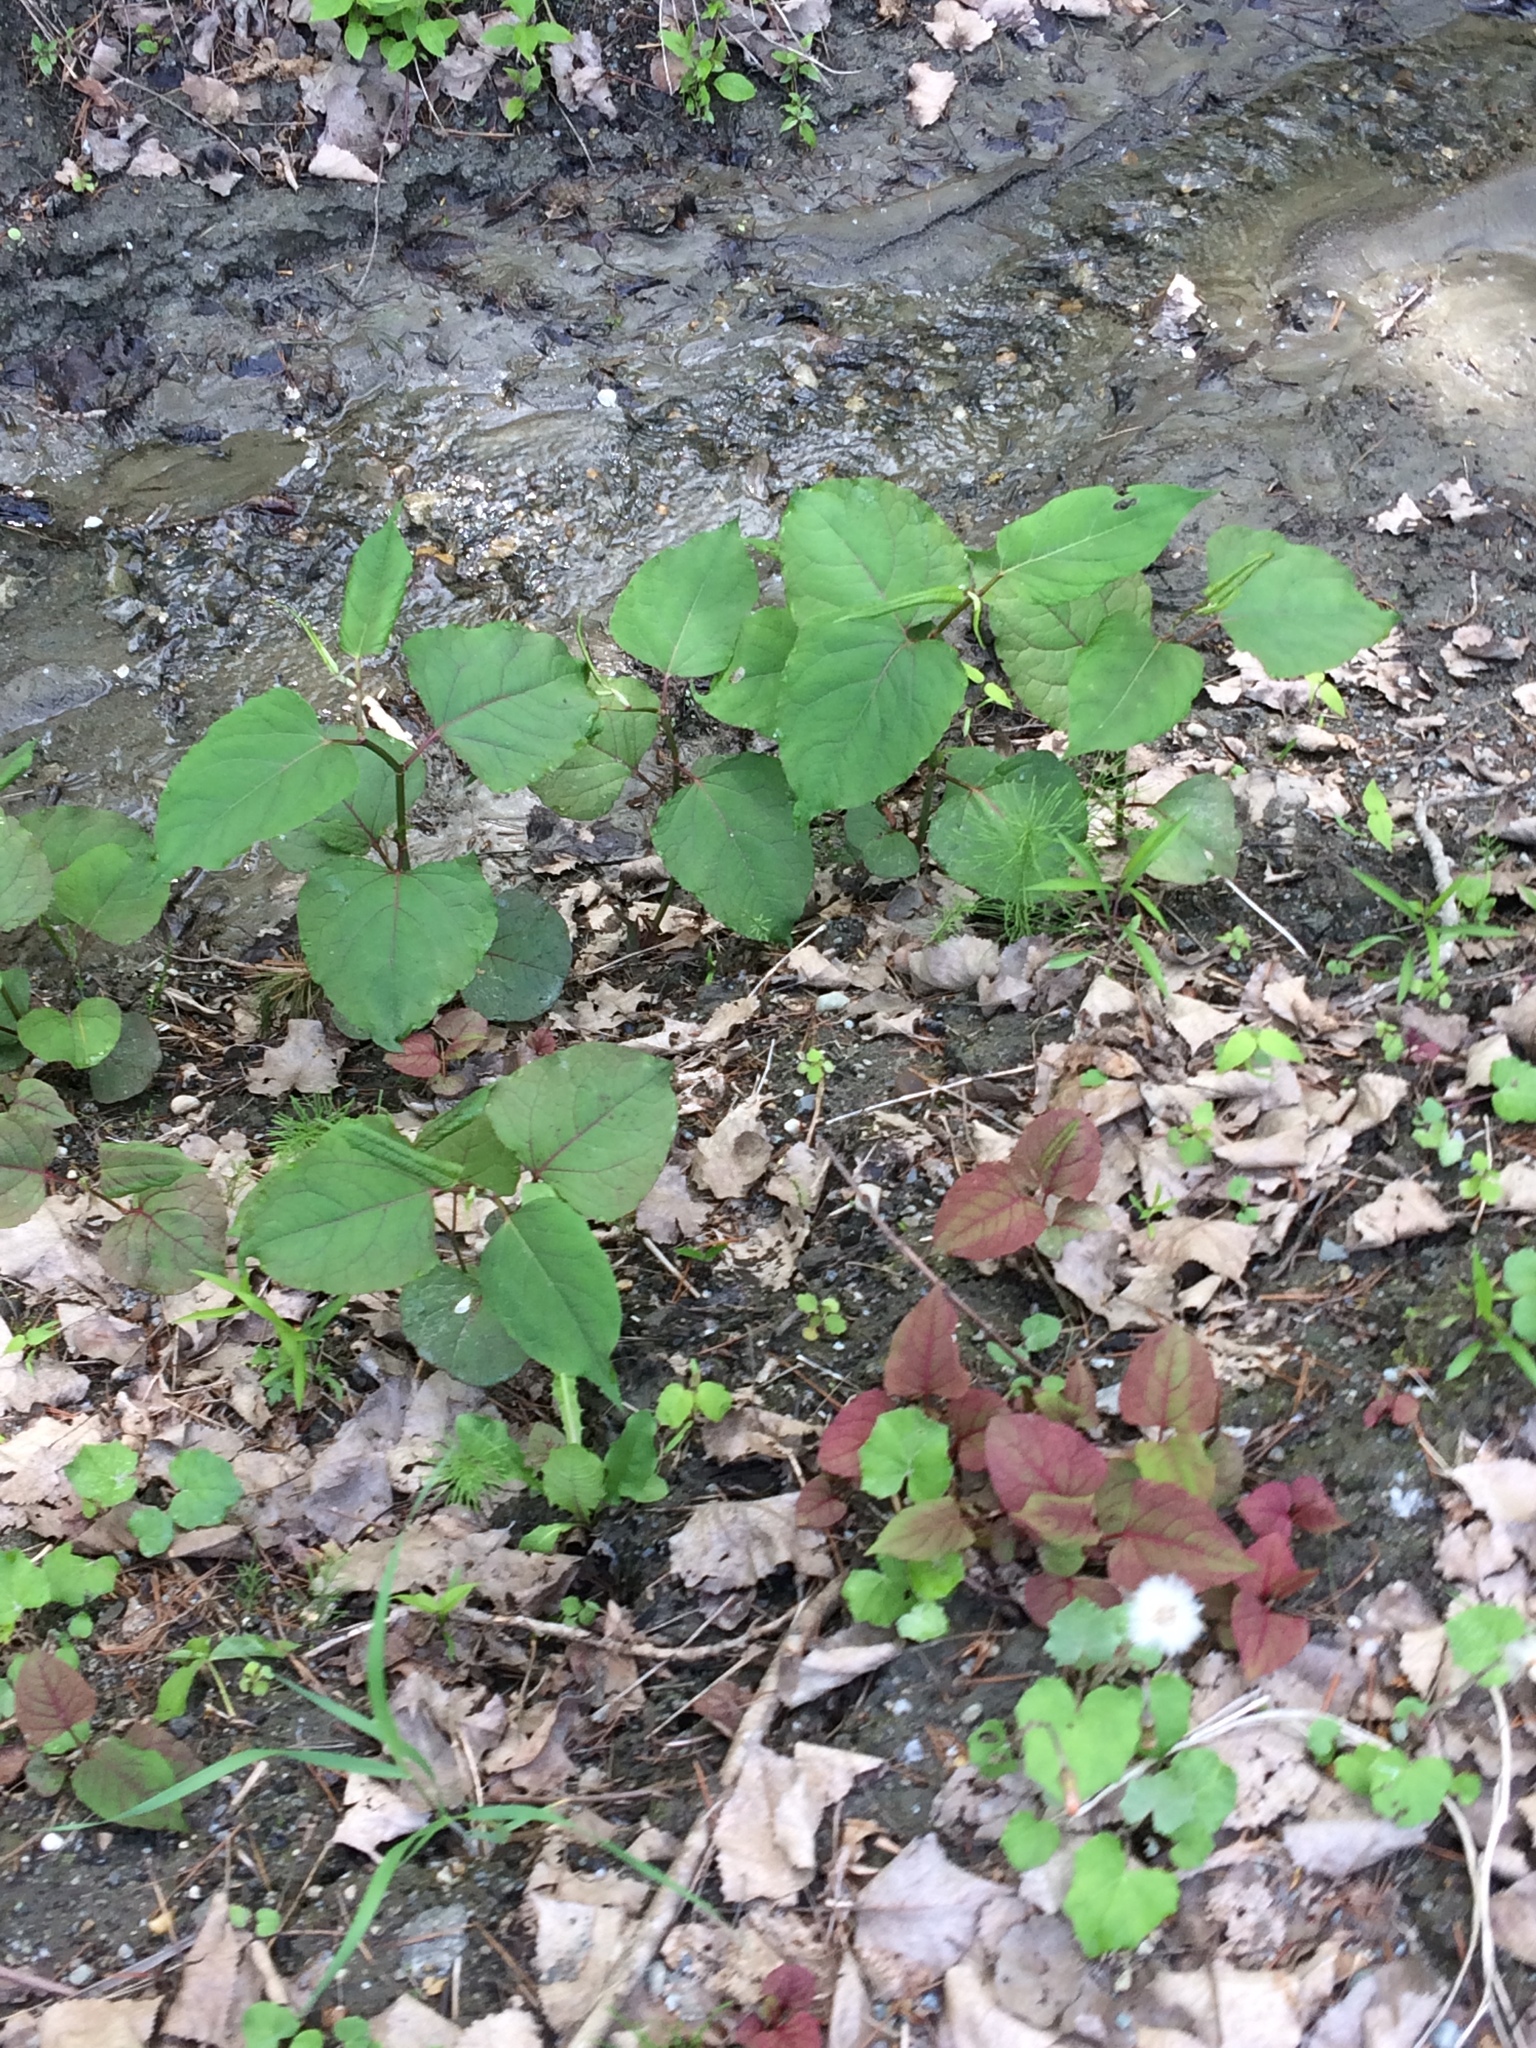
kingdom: Plantae
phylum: Tracheophyta
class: Magnoliopsida
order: Caryophyllales
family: Polygonaceae
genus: Reynoutria
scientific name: Reynoutria japonica
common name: Japanese knotweed
